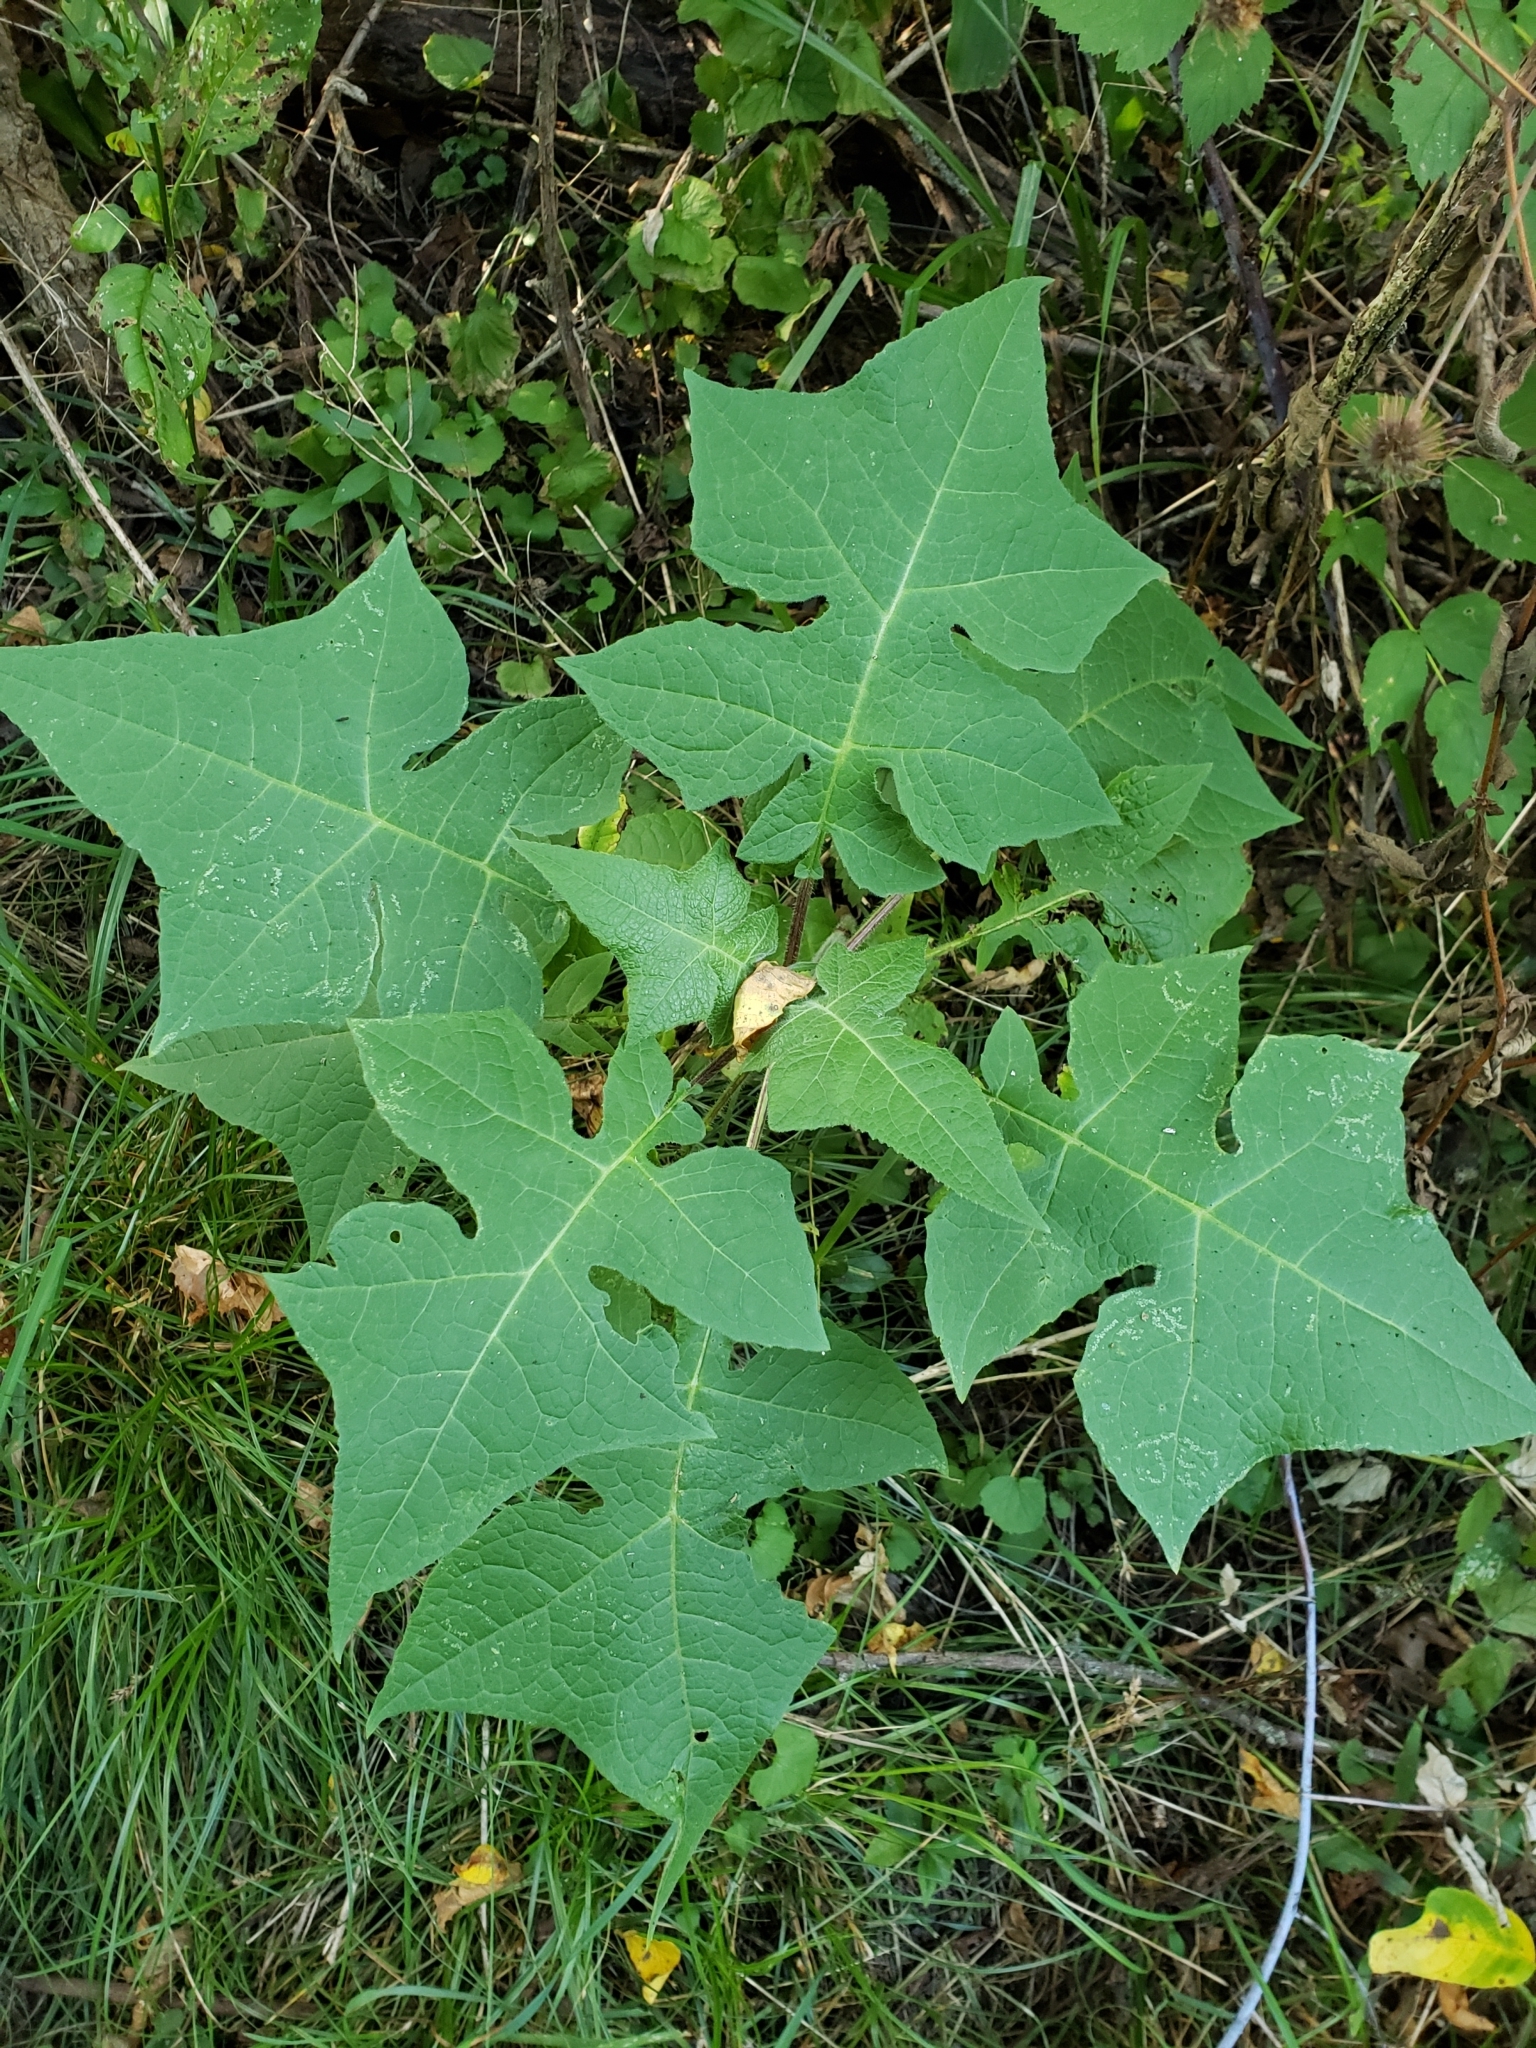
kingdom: Plantae
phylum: Tracheophyta
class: Magnoliopsida
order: Asterales
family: Asteraceae
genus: Polymnia
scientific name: Polymnia canadensis
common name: Pale-flowered leafcup
